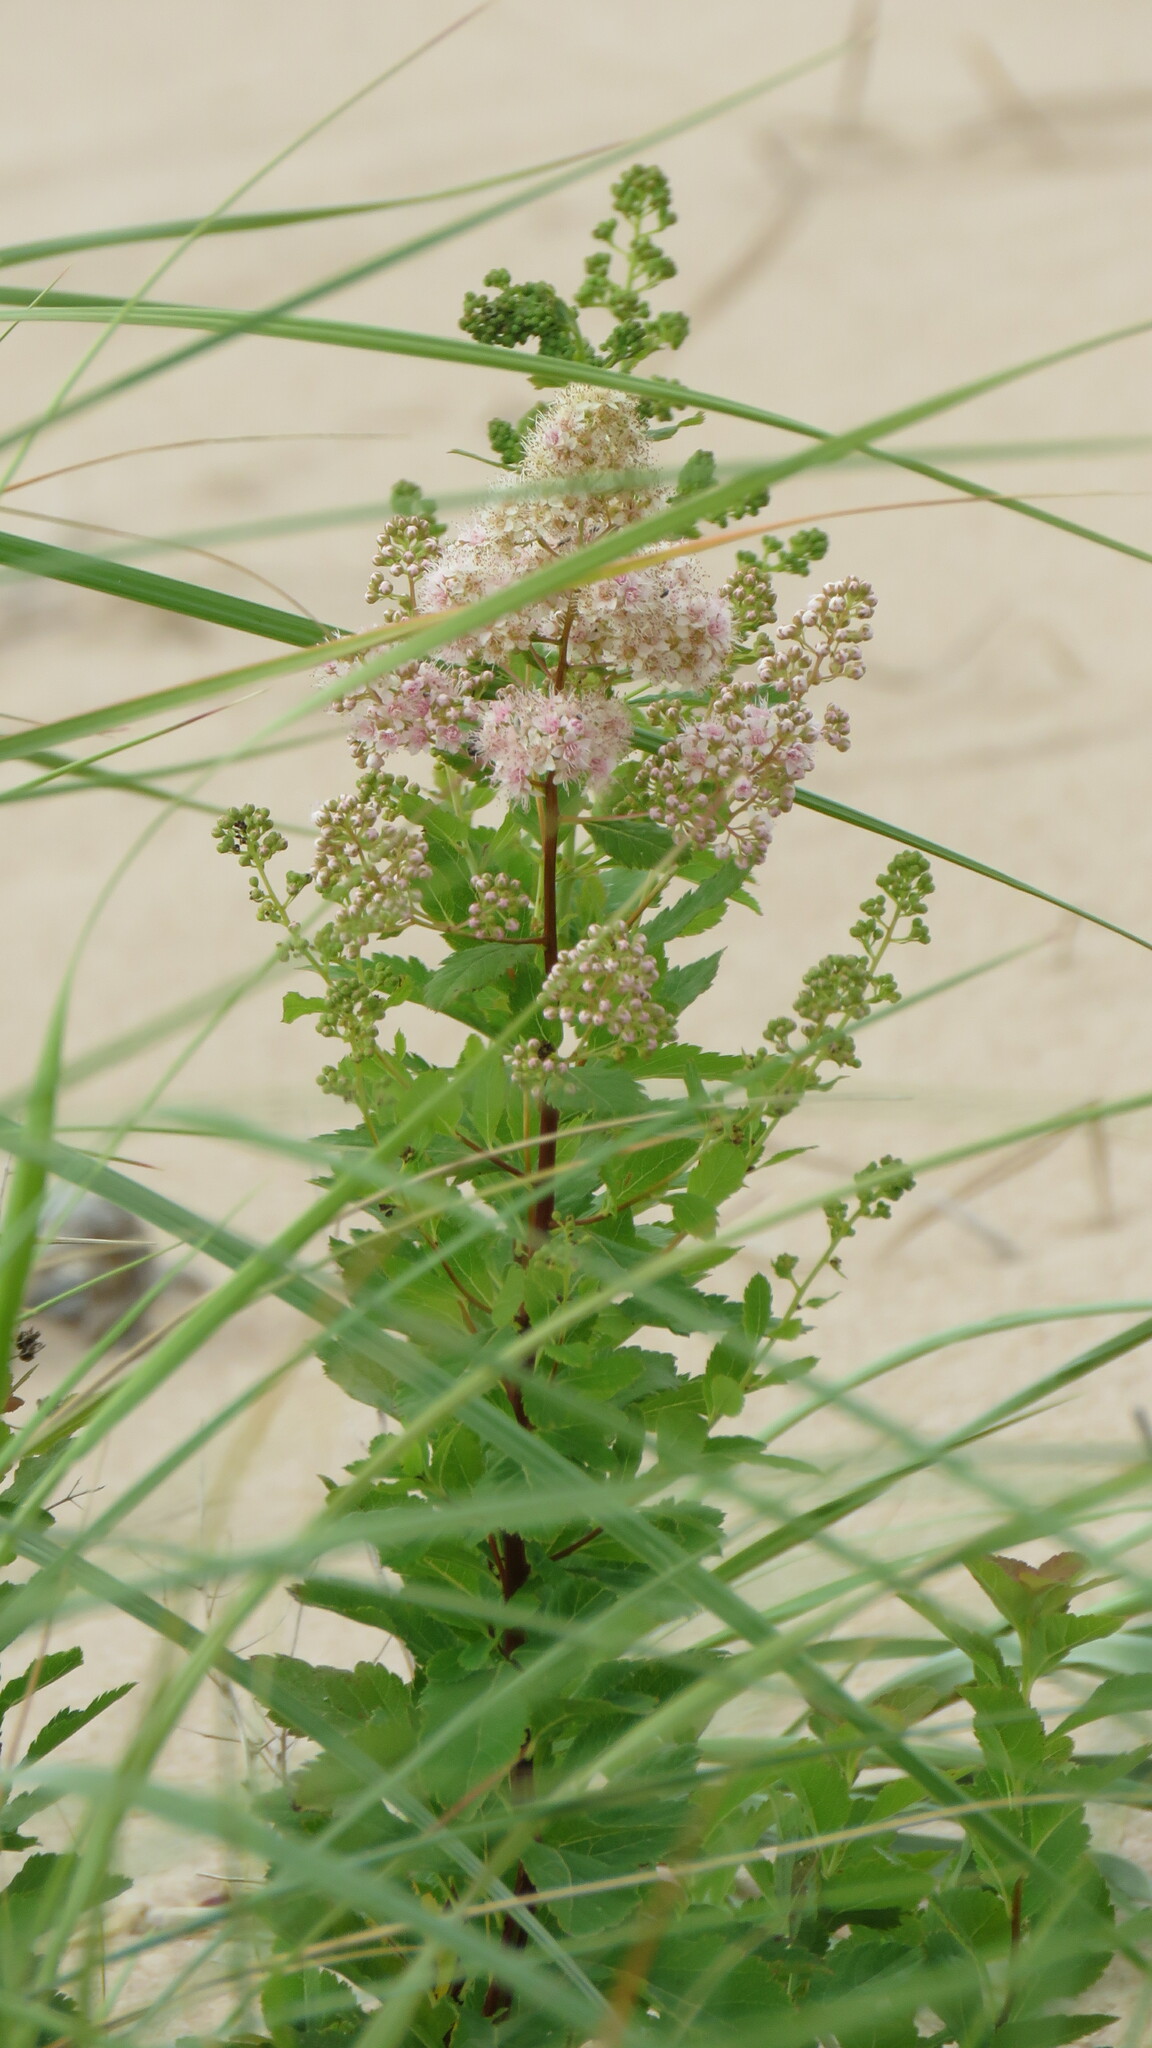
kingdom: Plantae
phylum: Tracheophyta
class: Magnoliopsida
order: Rosales
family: Rosaceae
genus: Spiraea
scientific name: Spiraea alba
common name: Pale bridewort
